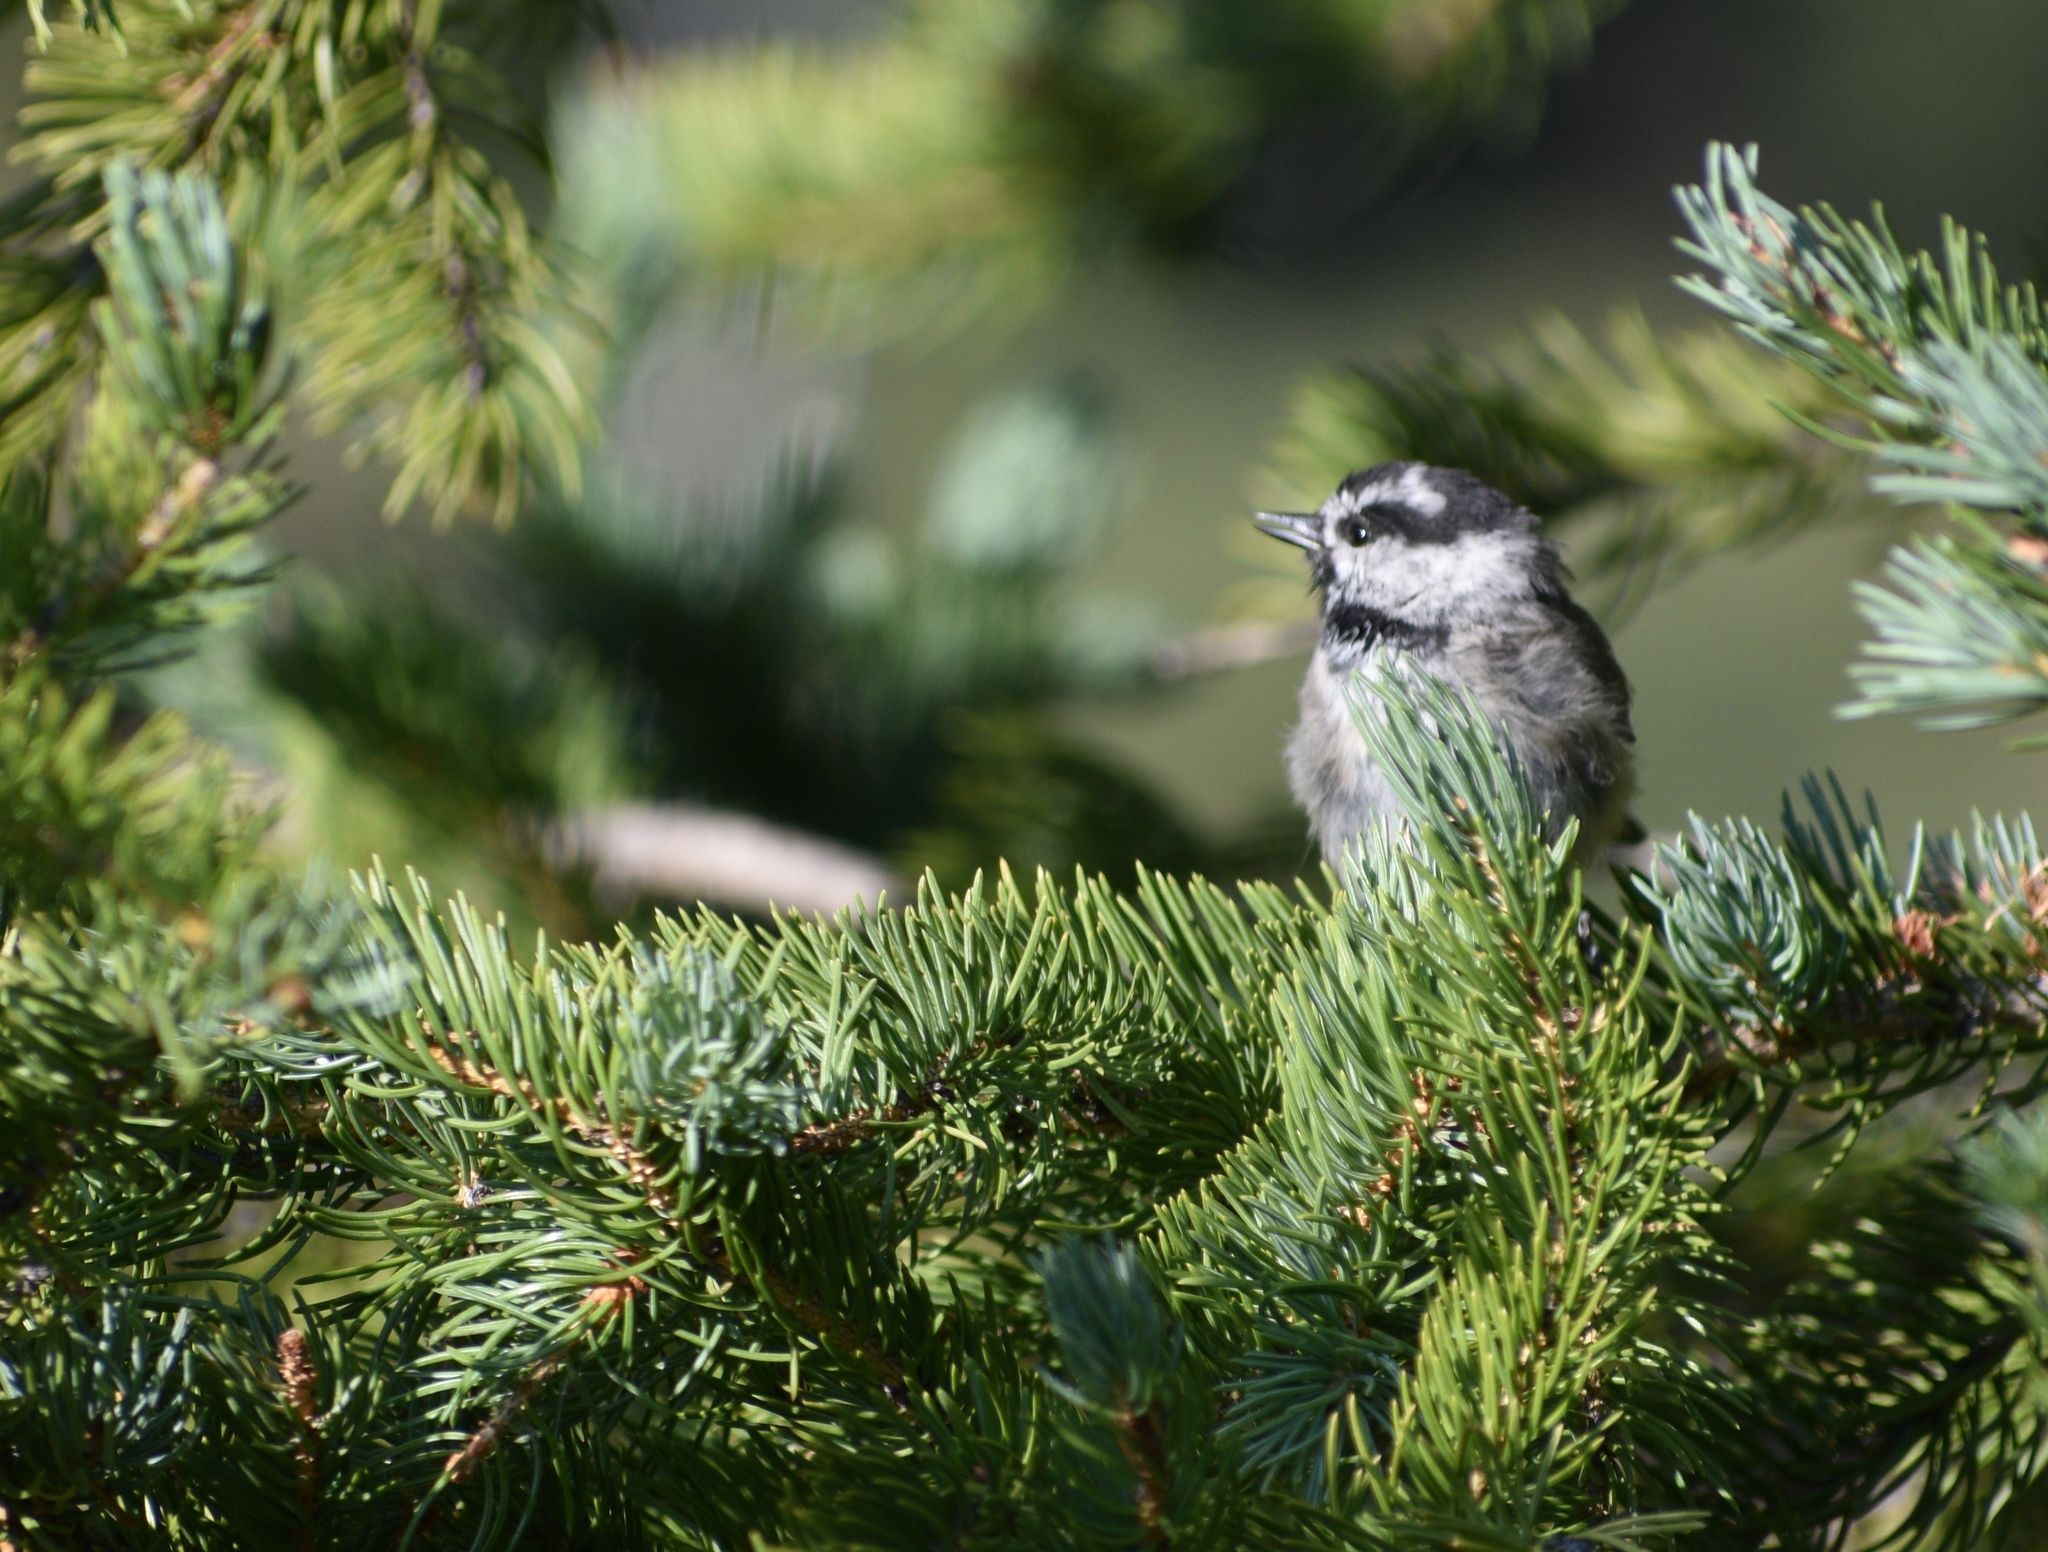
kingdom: Animalia
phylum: Chordata
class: Aves
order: Passeriformes
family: Paridae
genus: Poecile
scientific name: Poecile gambeli
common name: Mountain chickadee
